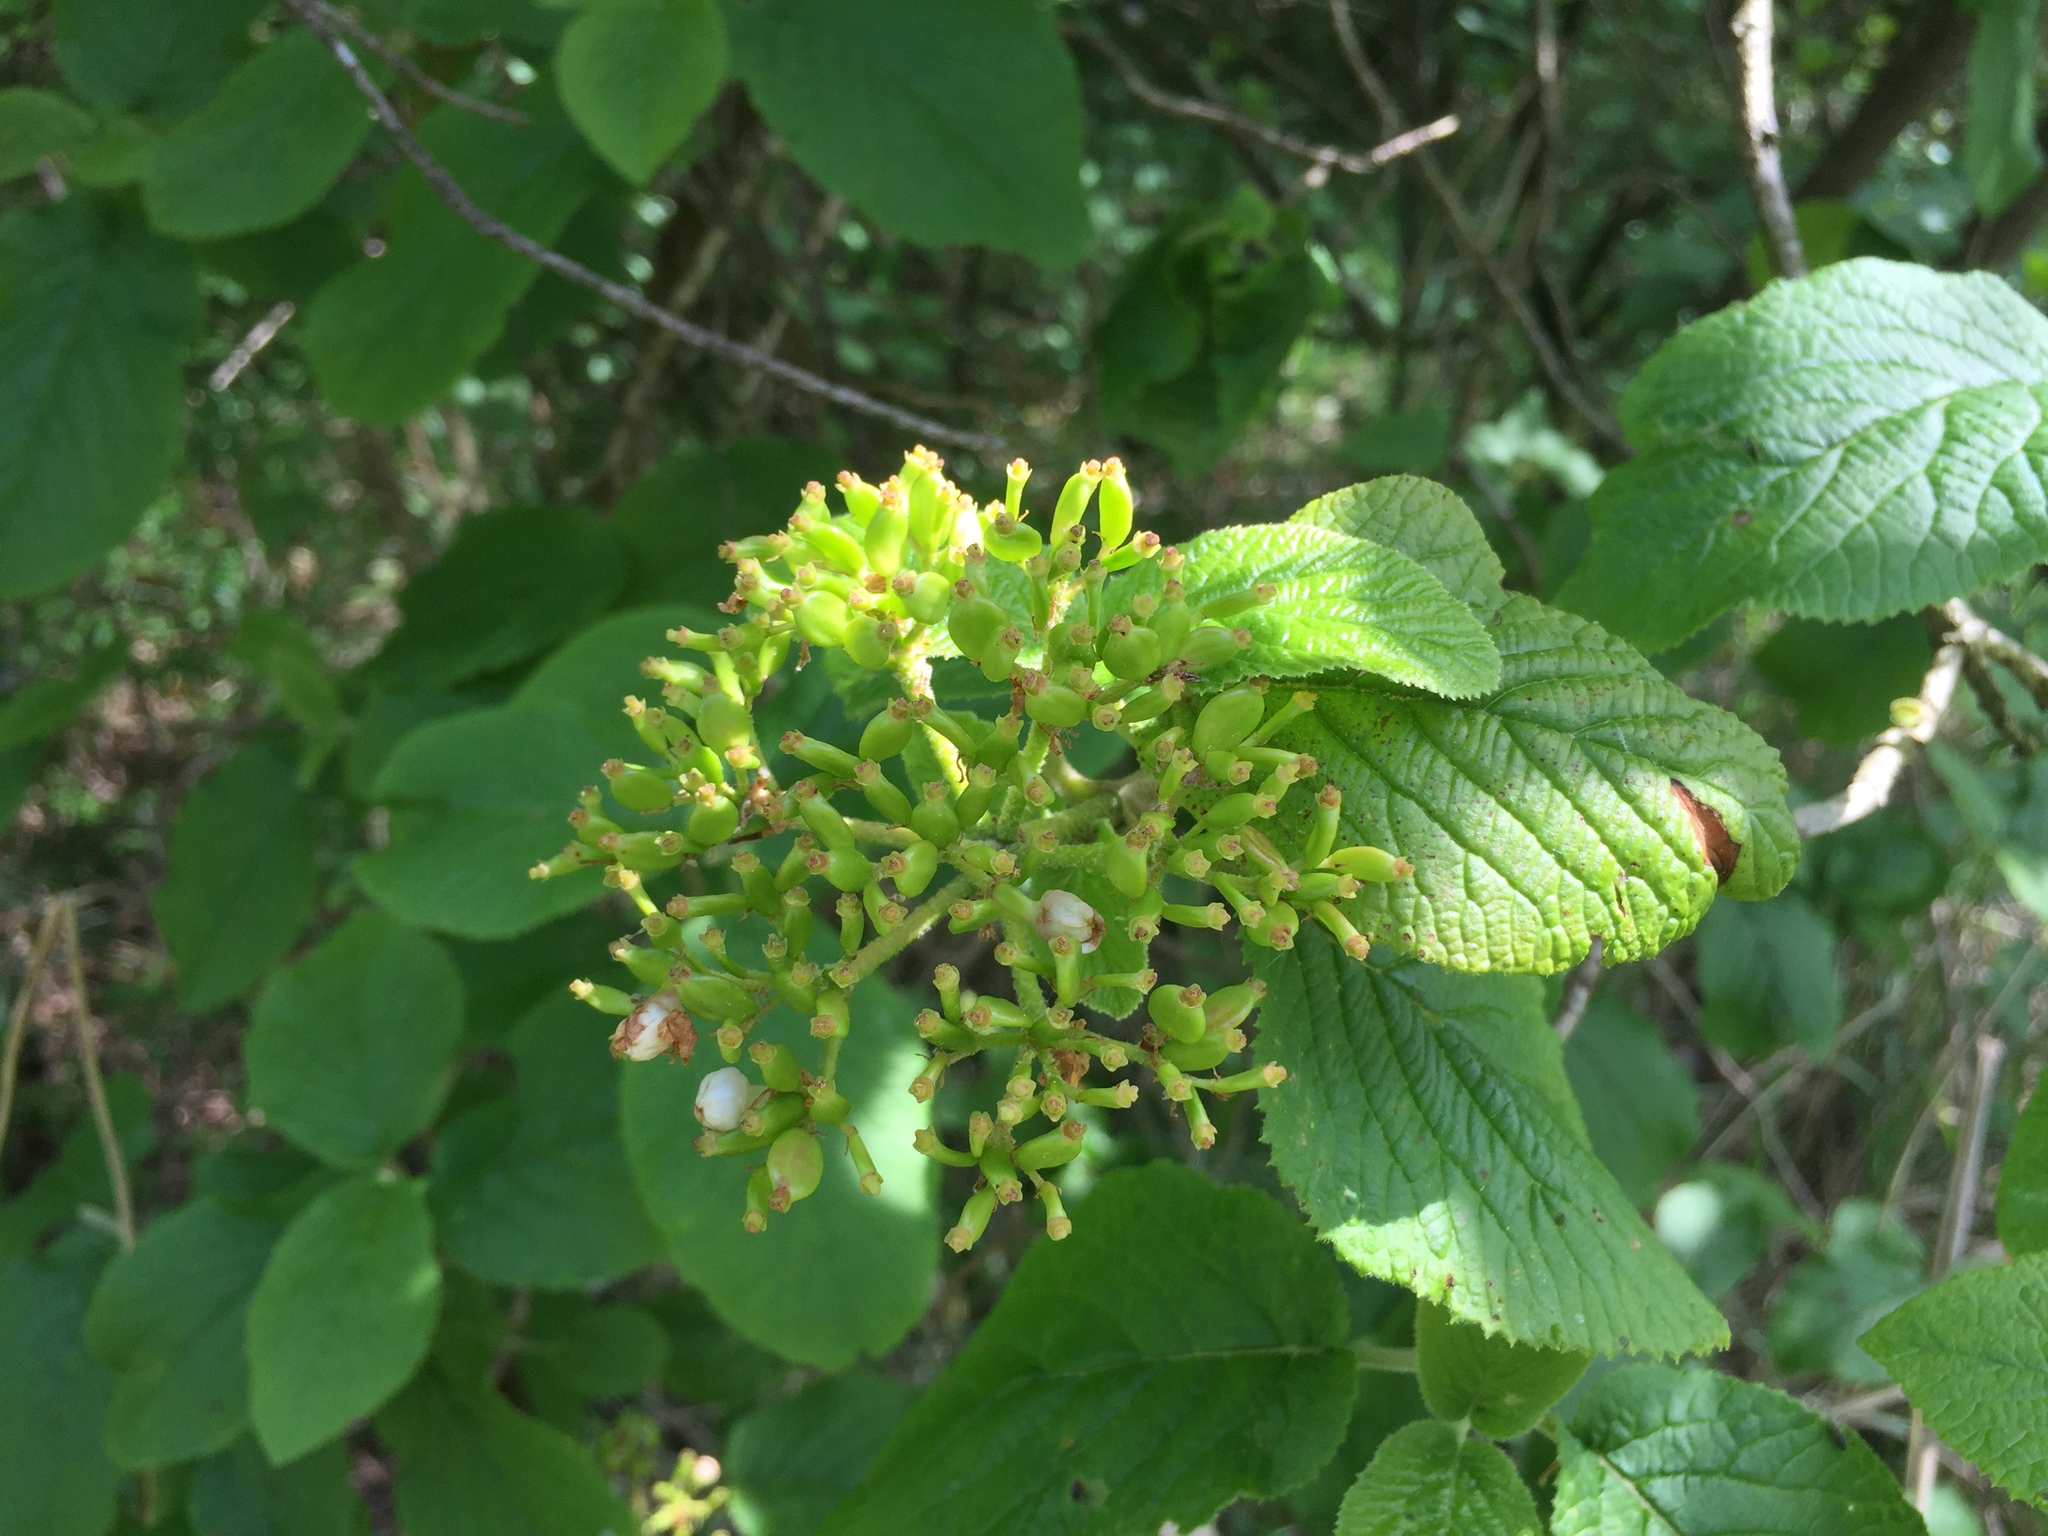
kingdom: Plantae
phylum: Tracheophyta
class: Magnoliopsida
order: Dipsacales
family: Viburnaceae
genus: Viburnum
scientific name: Viburnum lantana
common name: Wayfaring tree
